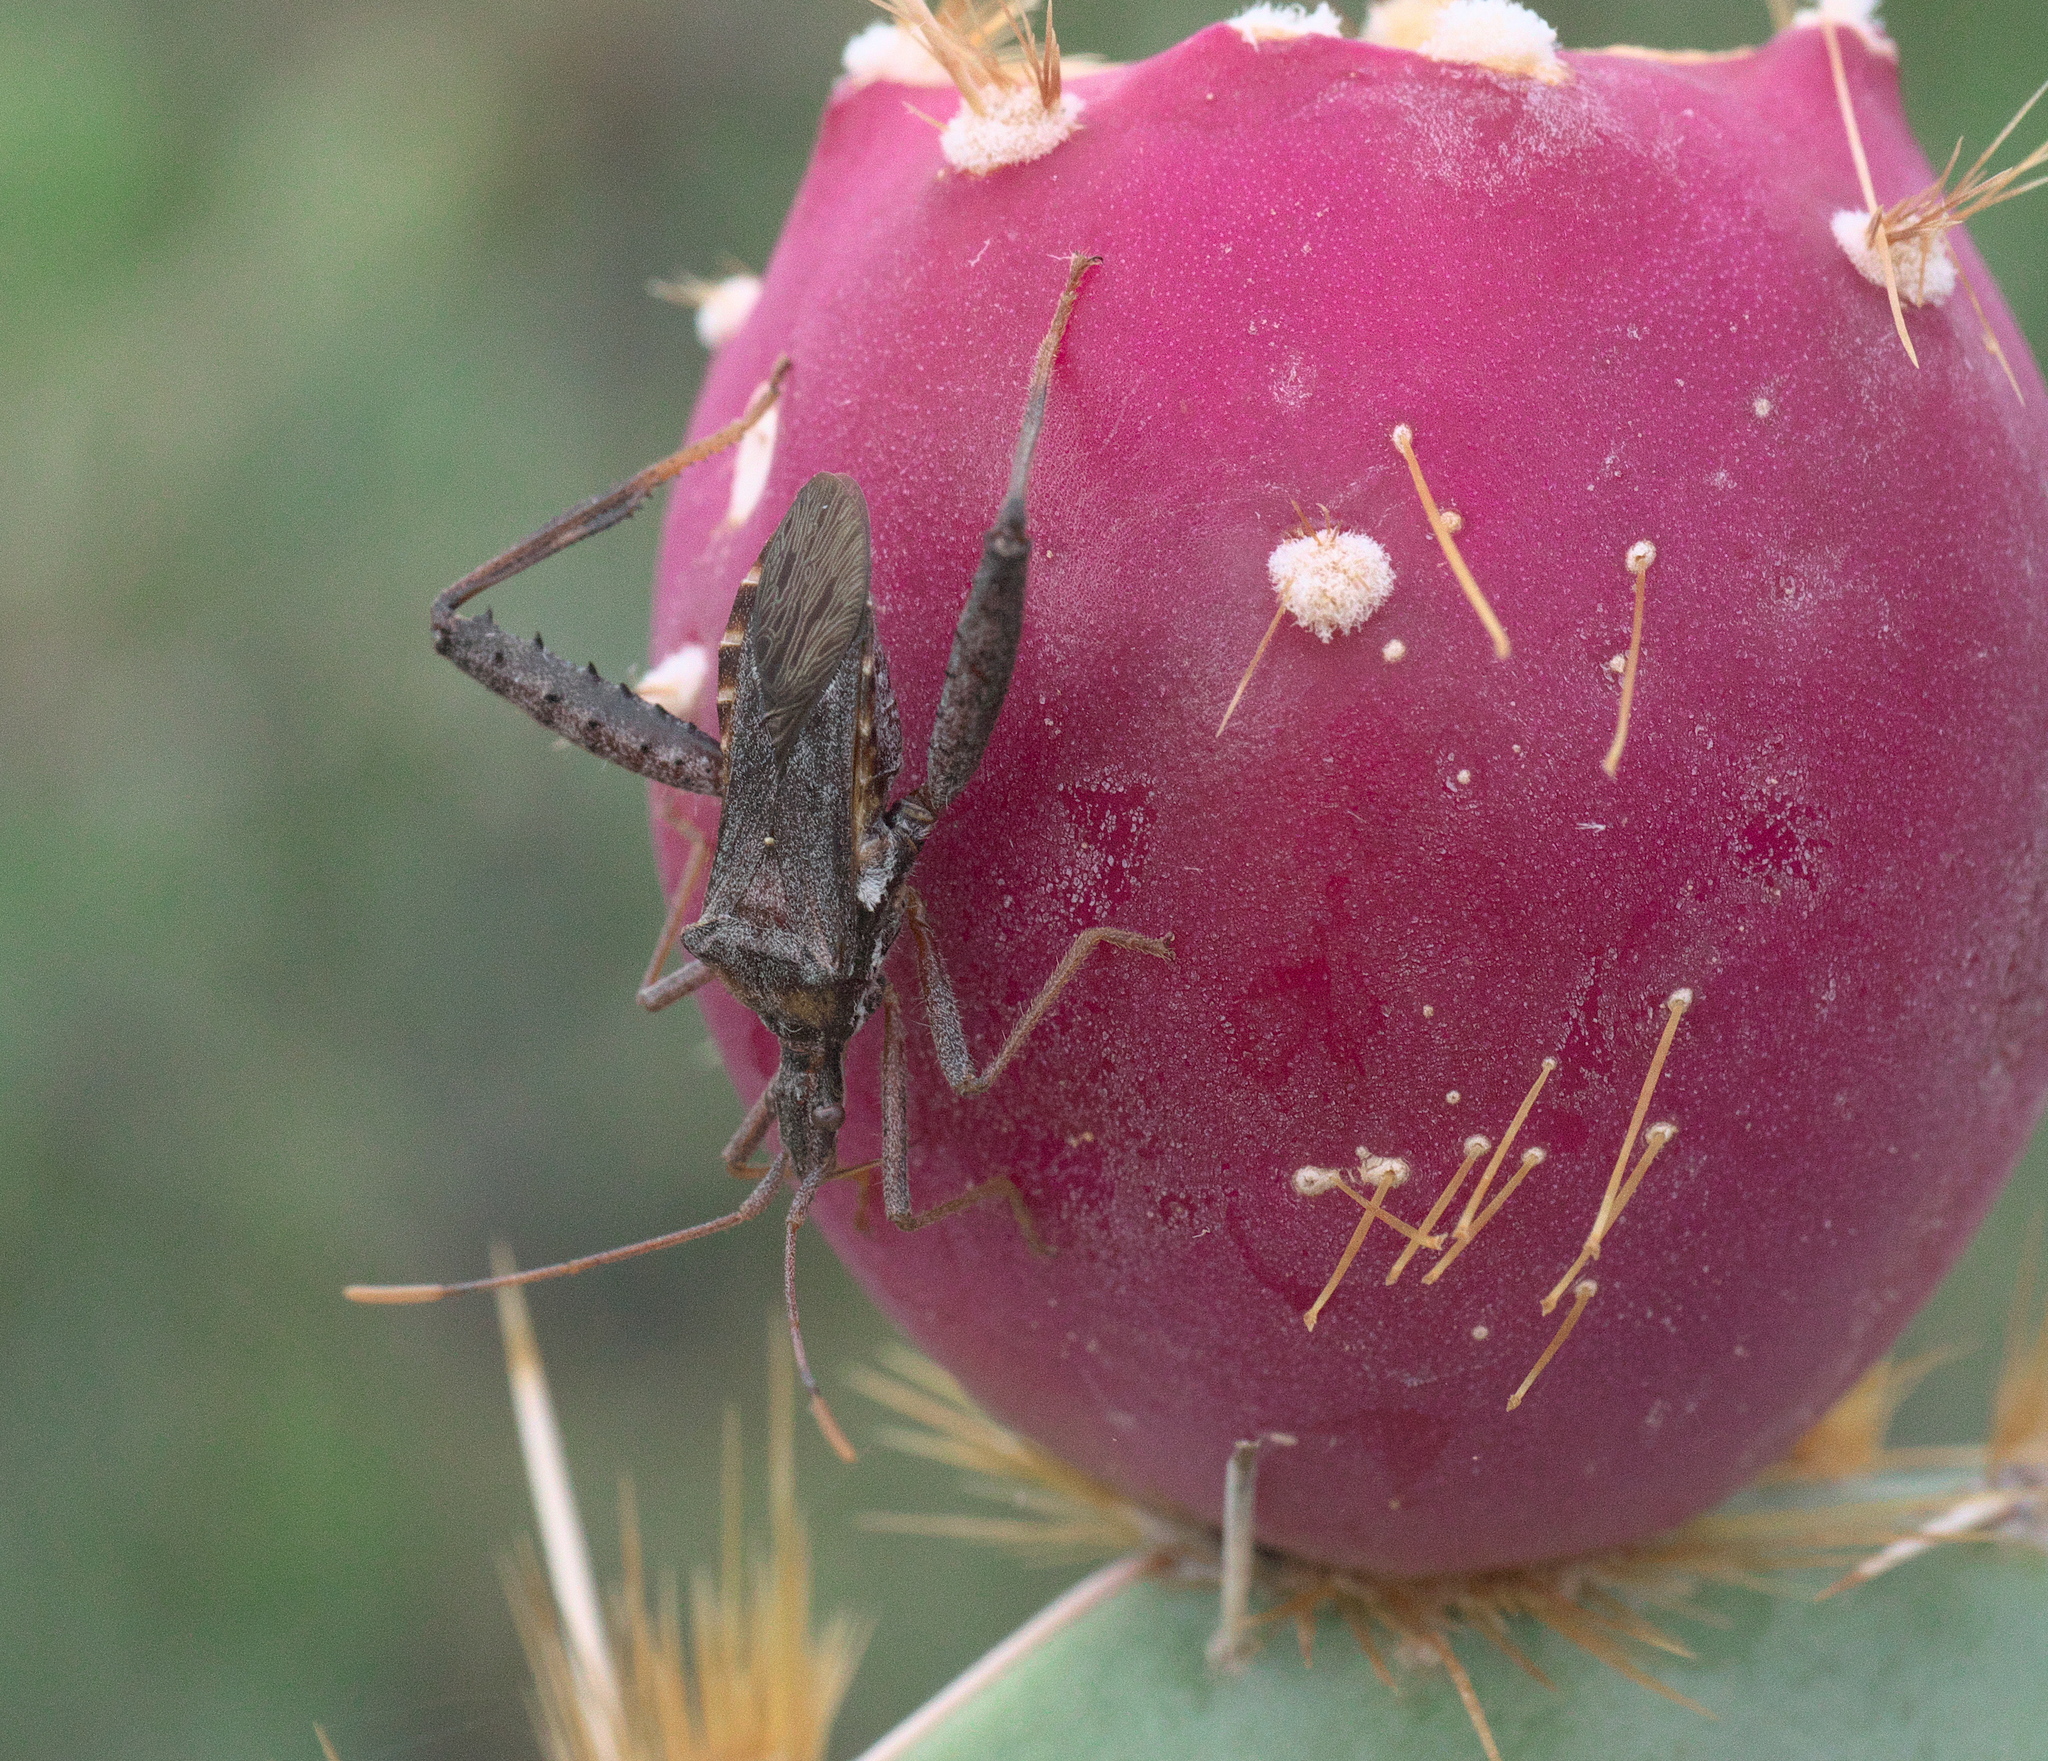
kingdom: Animalia
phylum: Arthropoda
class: Insecta
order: Hemiptera
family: Coreidae
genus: Narnia
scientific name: Narnia inornata
